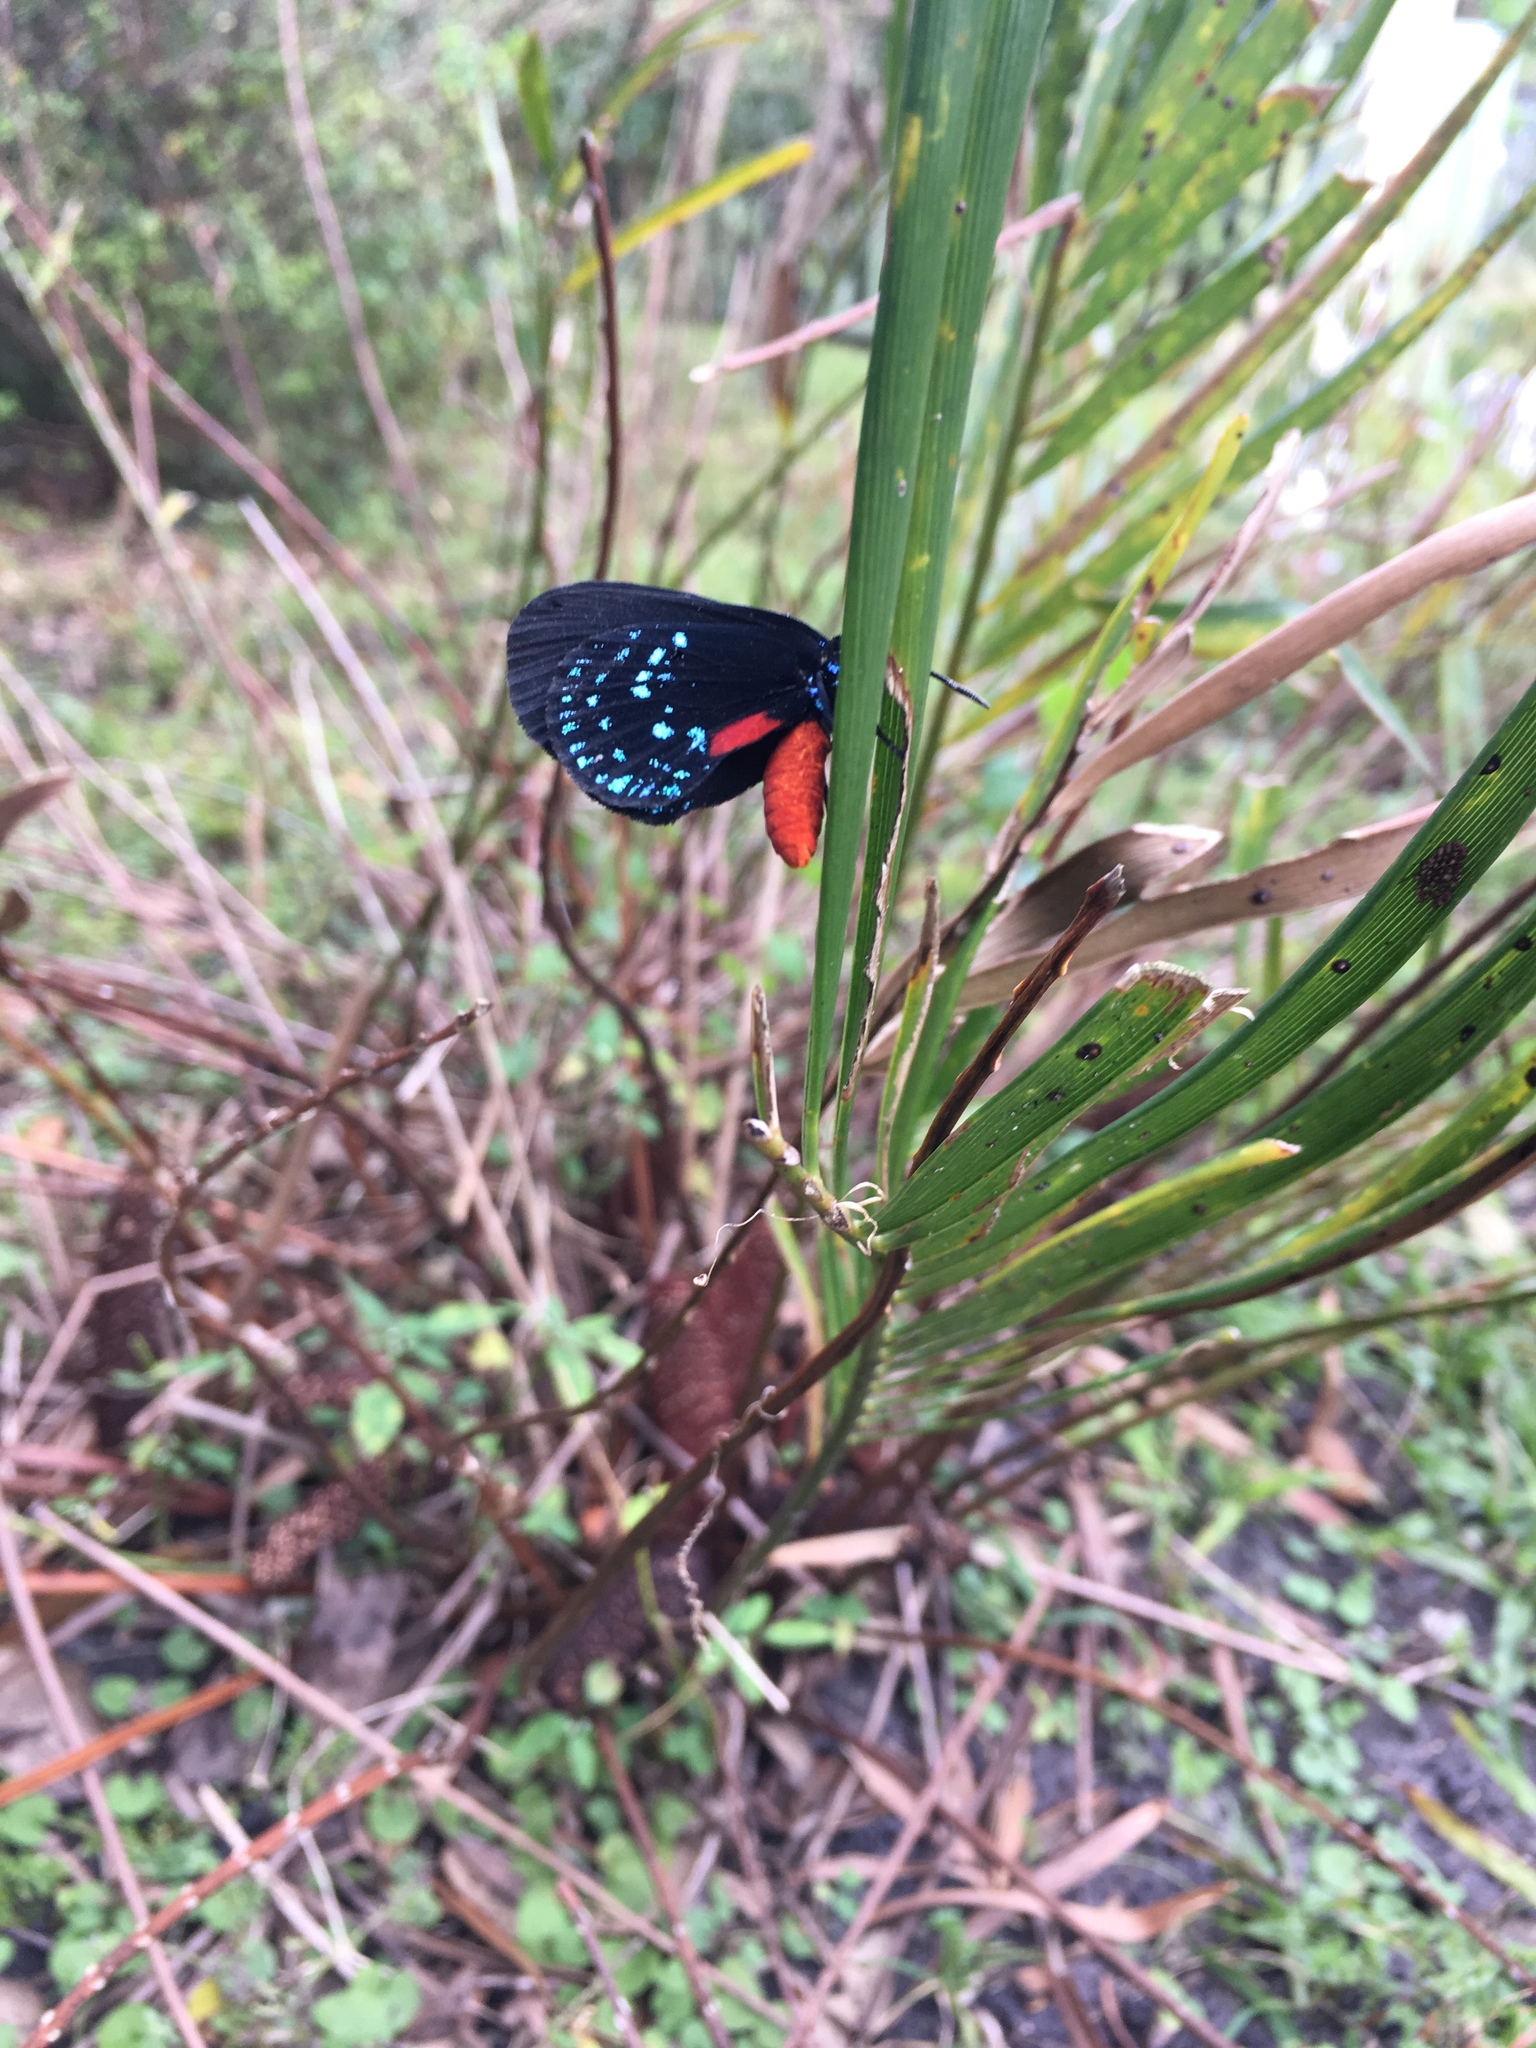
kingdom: Animalia
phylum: Arthropoda
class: Insecta
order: Lepidoptera
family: Lycaenidae
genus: Eumaeus
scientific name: Eumaeus atala
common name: Atala
